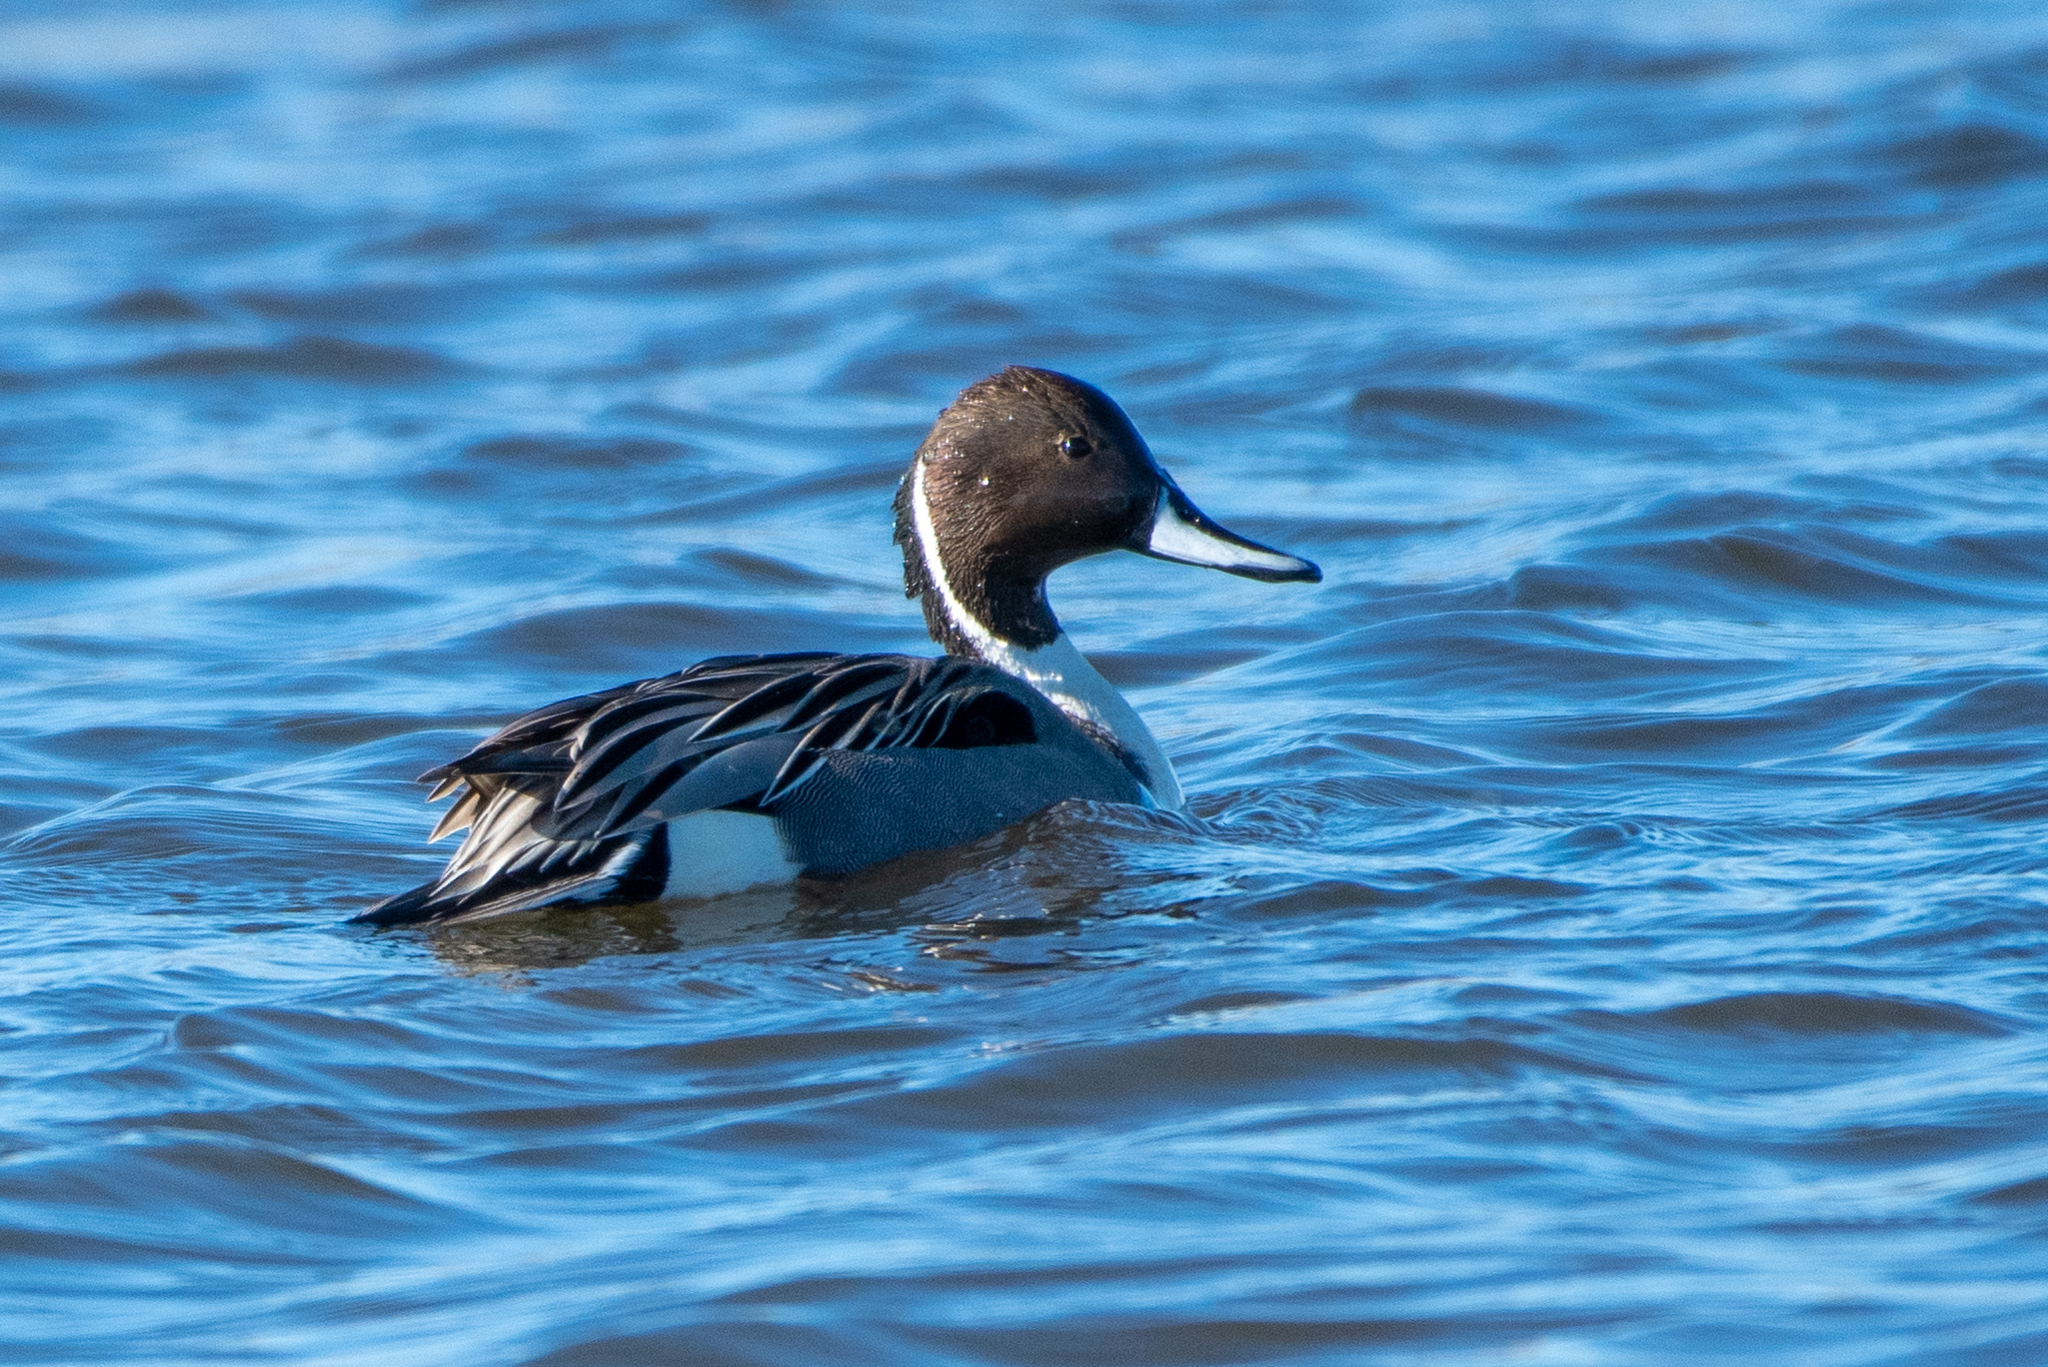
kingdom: Animalia
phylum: Chordata
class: Aves
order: Anseriformes
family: Anatidae
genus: Anas
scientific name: Anas acuta
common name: Northern pintail
